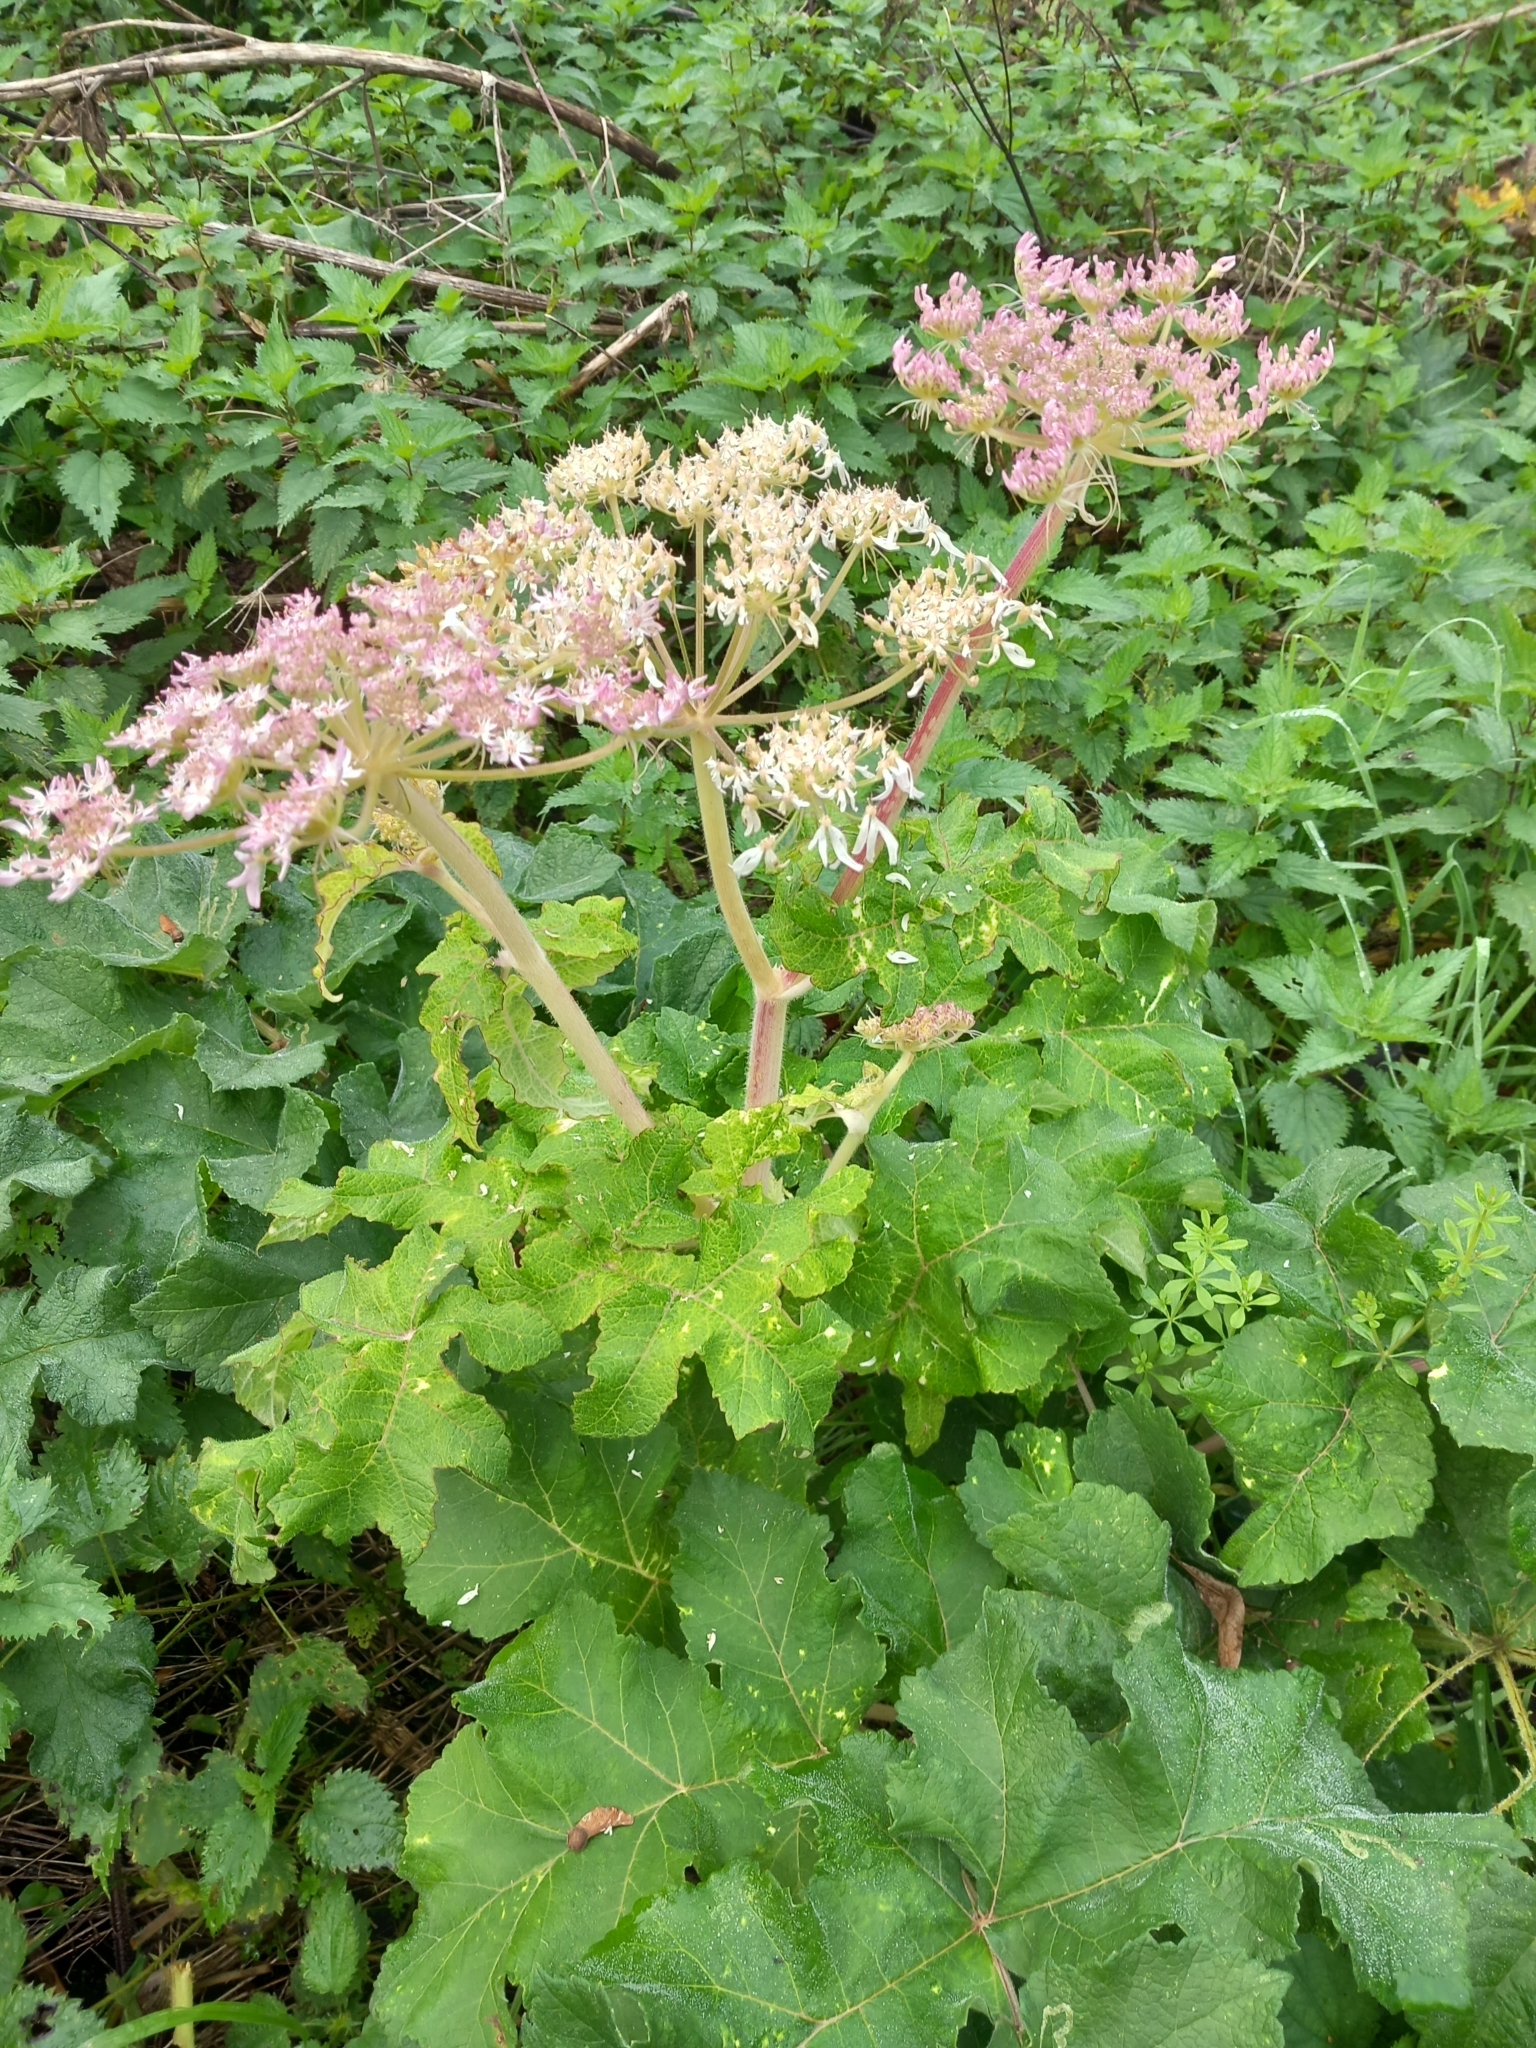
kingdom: Plantae
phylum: Tracheophyta
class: Magnoliopsida
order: Apiales
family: Apiaceae
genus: Heracleum
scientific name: Heracleum sphondylium
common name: Hogweed
